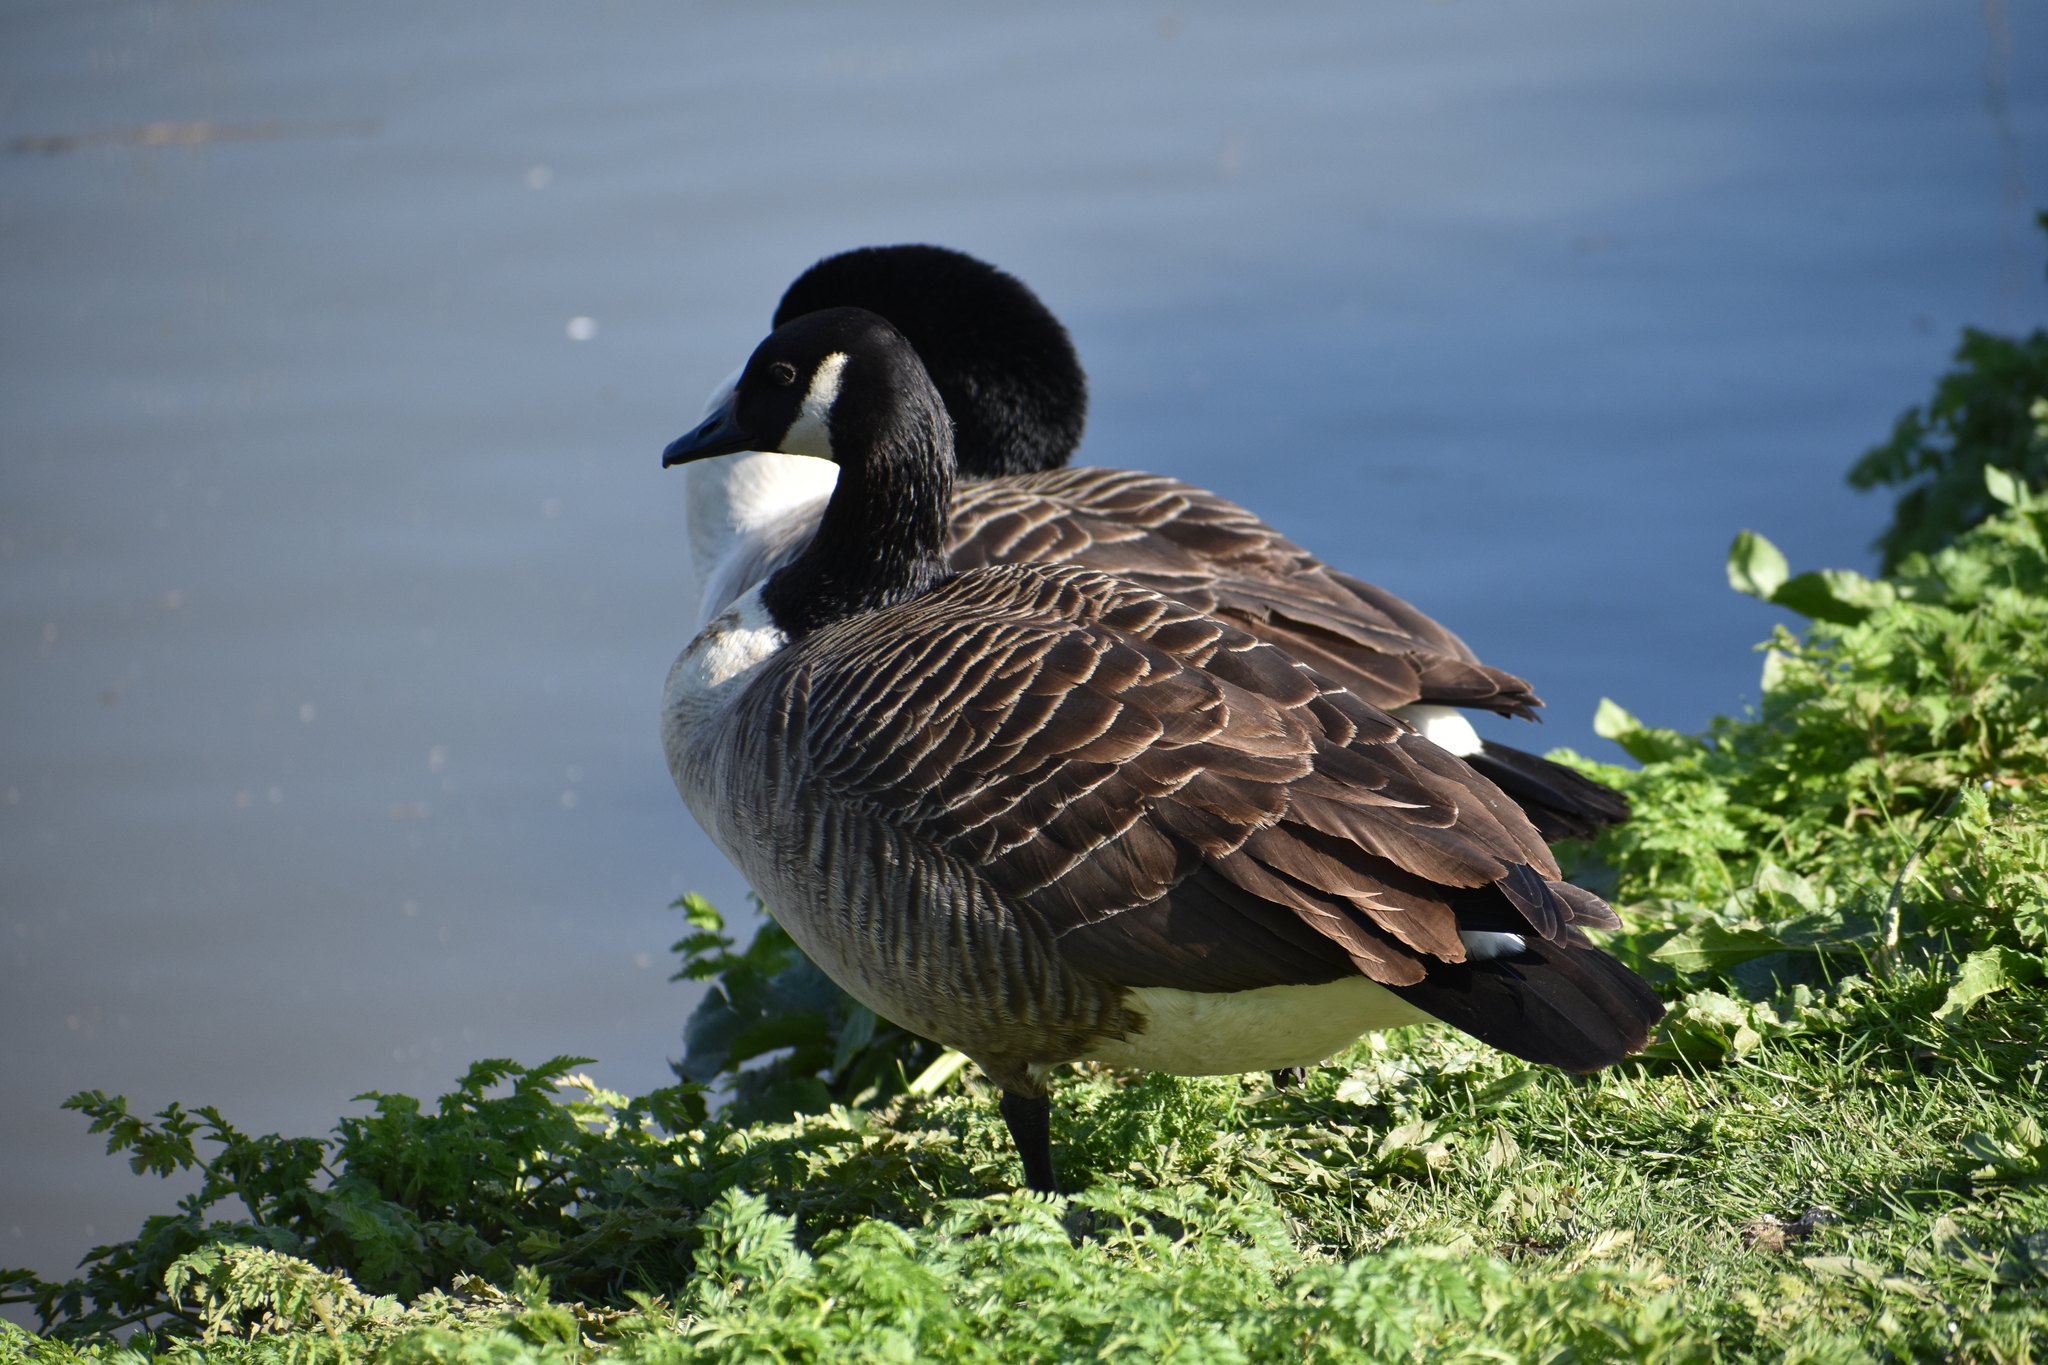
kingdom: Animalia
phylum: Chordata
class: Aves
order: Anseriformes
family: Anatidae
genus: Branta
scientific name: Branta canadensis
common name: Canada goose
